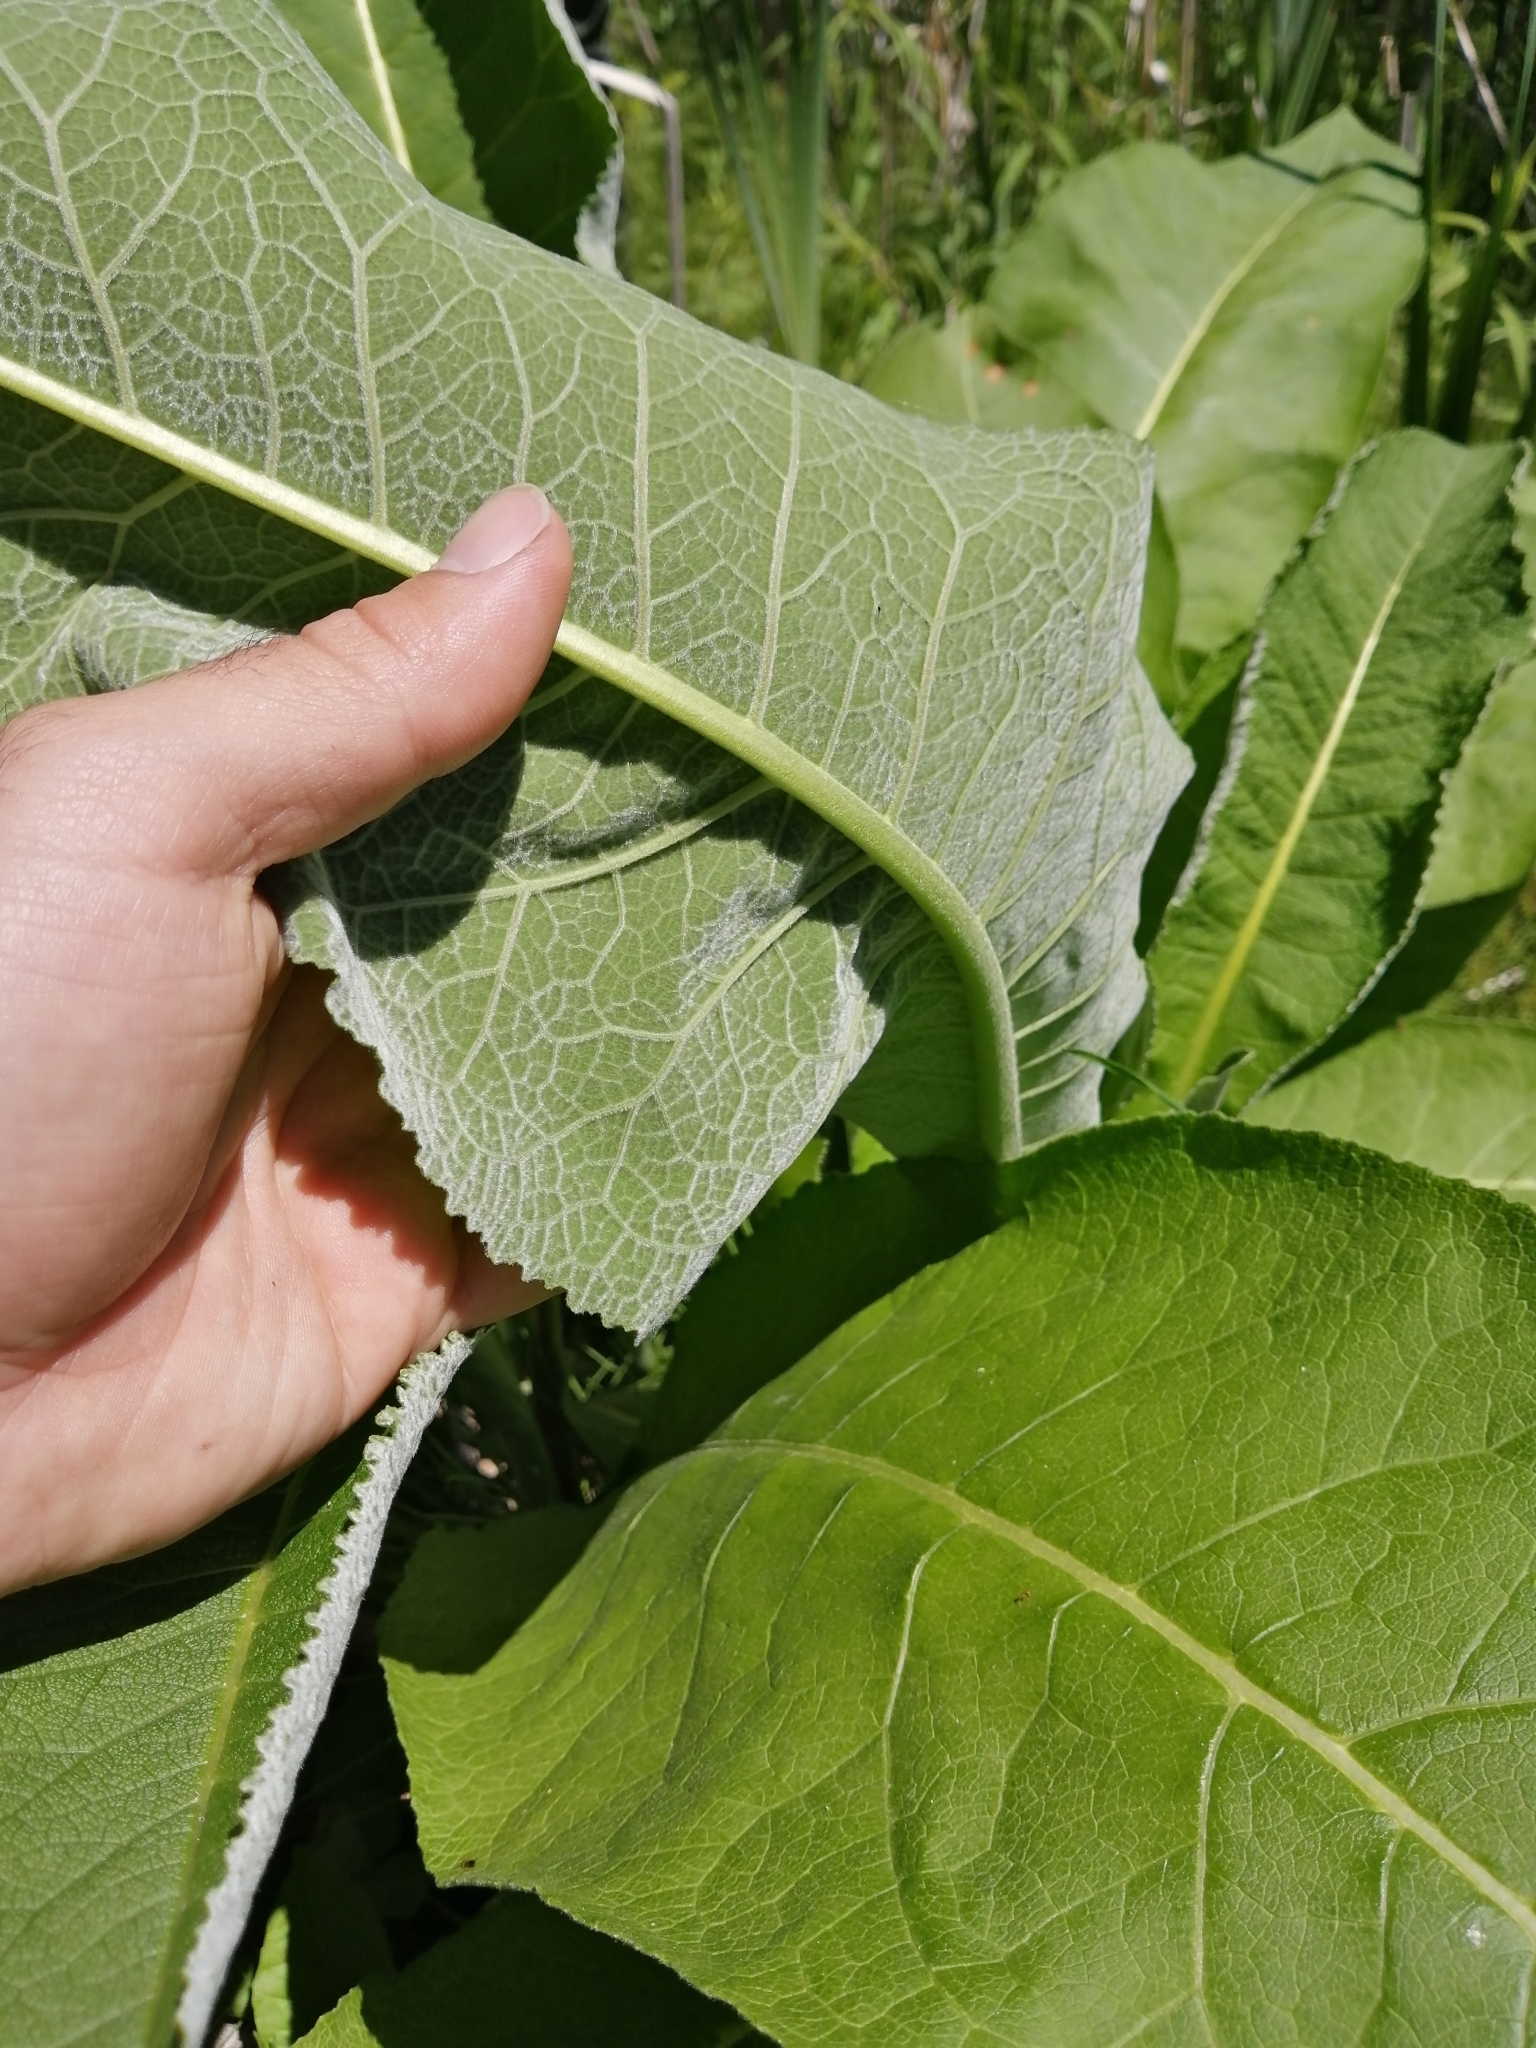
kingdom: Plantae
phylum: Tracheophyta
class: Magnoliopsida
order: Asterales
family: Asteraceae
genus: Inula
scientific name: Inula helenium
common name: Elecampane
